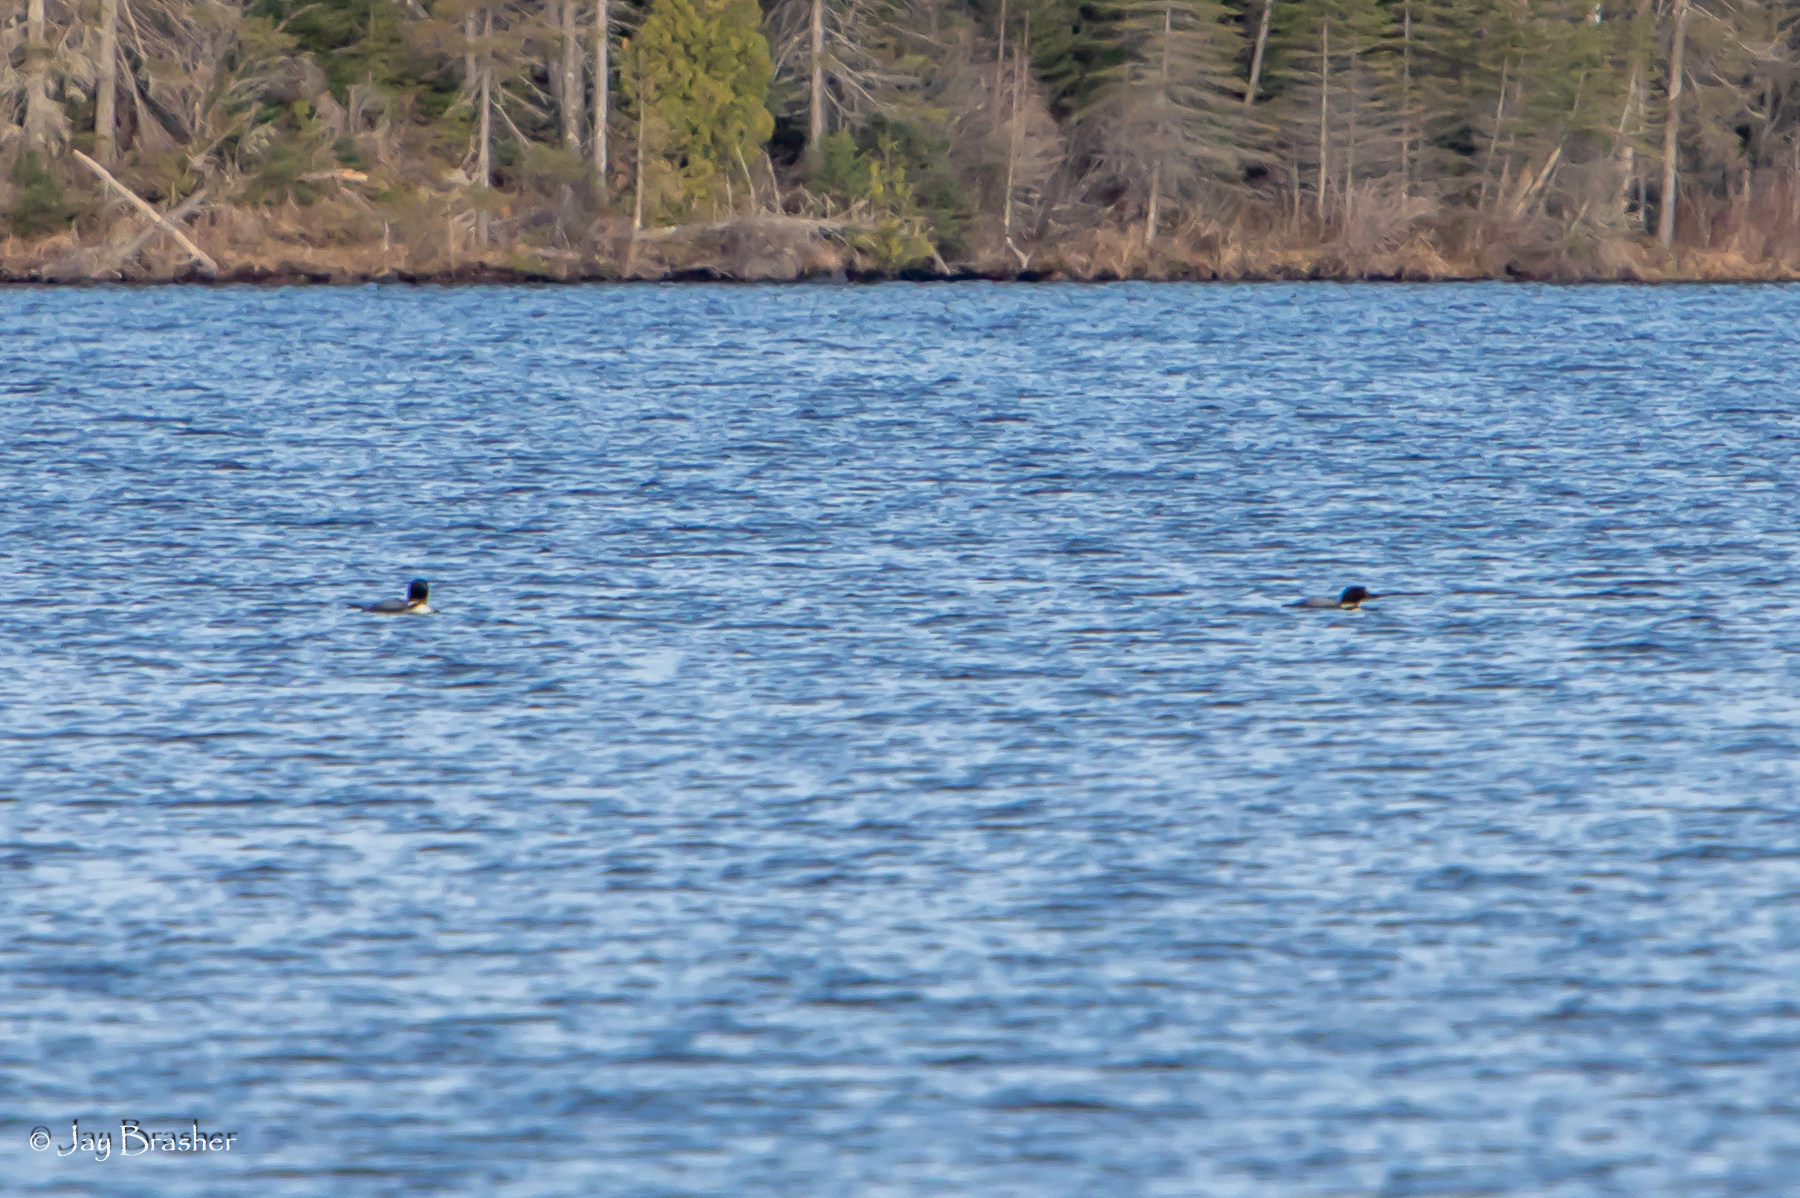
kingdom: Animalia
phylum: Chordata
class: Aves
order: Gaviiformes
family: Gaviidae
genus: Gavia
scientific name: Gavia immer
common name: Common loon
